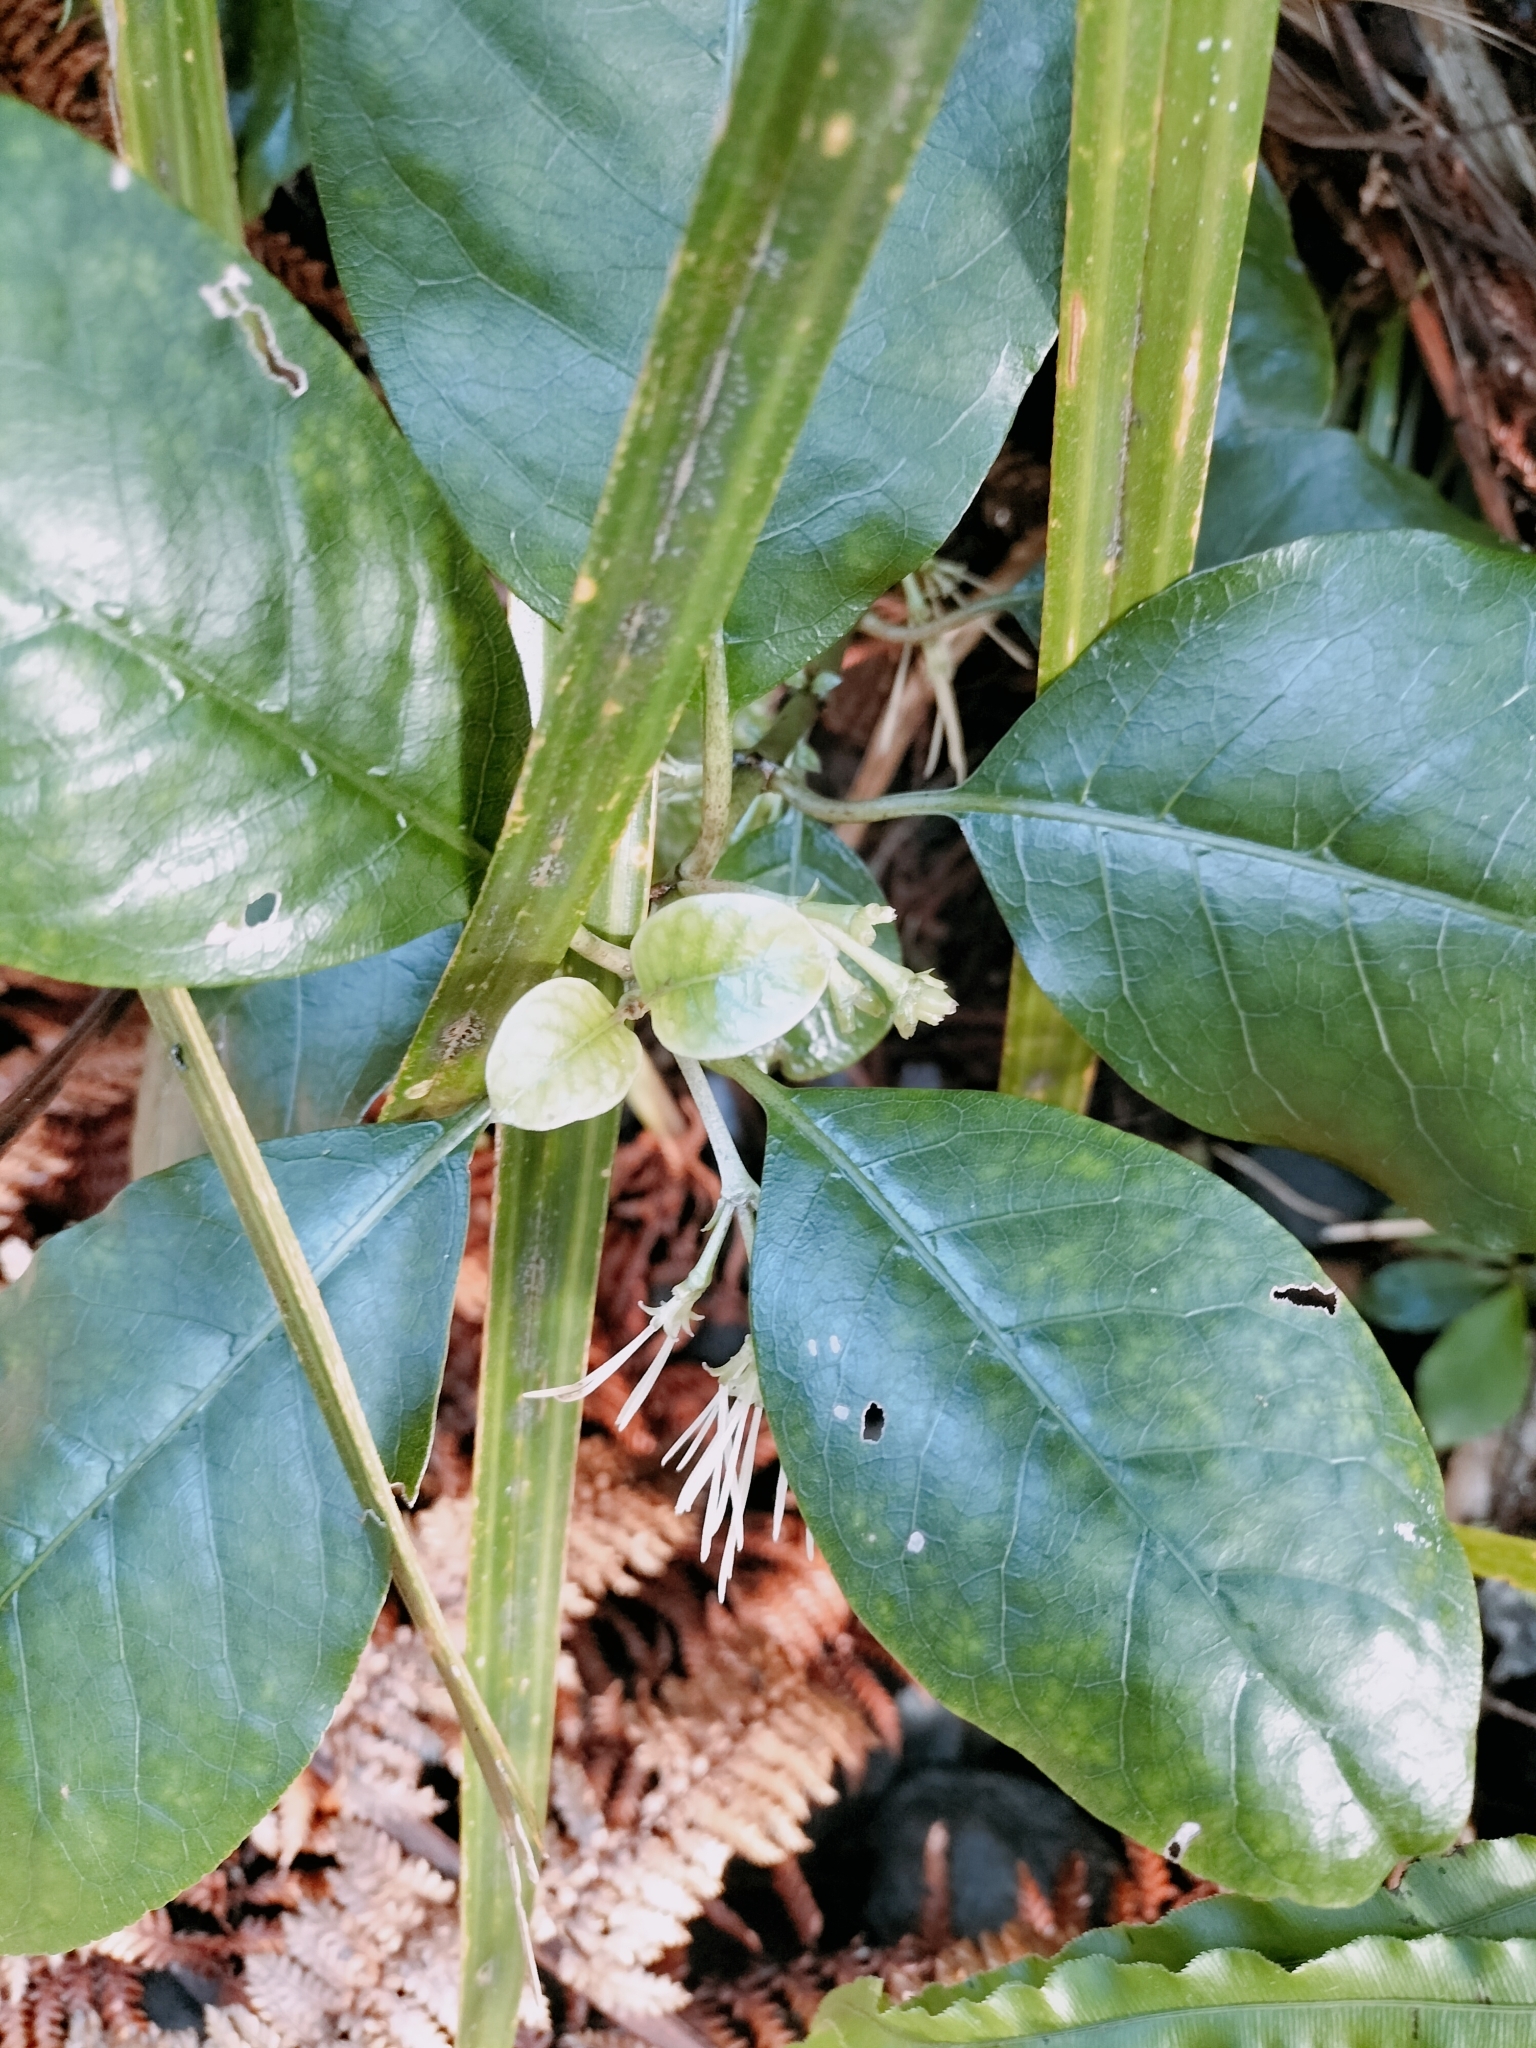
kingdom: Plantae
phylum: Tracheophyta
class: Magnoliopsida
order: Gentianales
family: Rubiaceae
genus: Coprosma
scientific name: Coprosma autumnalis
